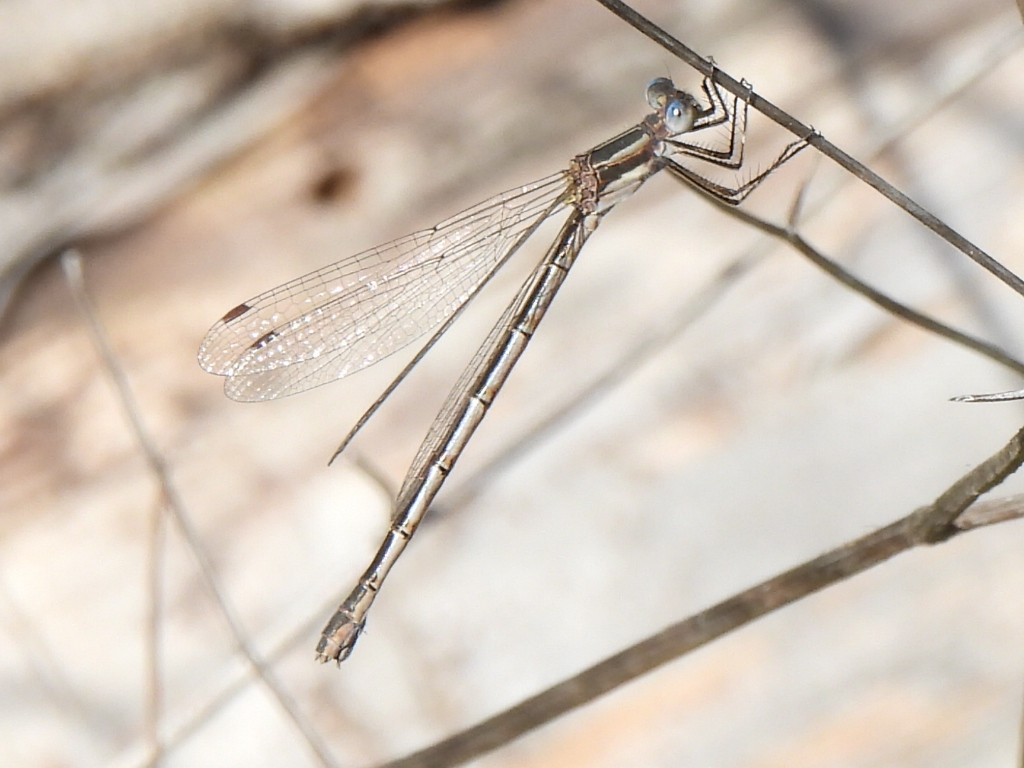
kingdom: Animalia
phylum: Arthropoda
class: Insecta
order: Odonata
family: Lestidae
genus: Lestes
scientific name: Lestes australis
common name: Southern spreadwing
